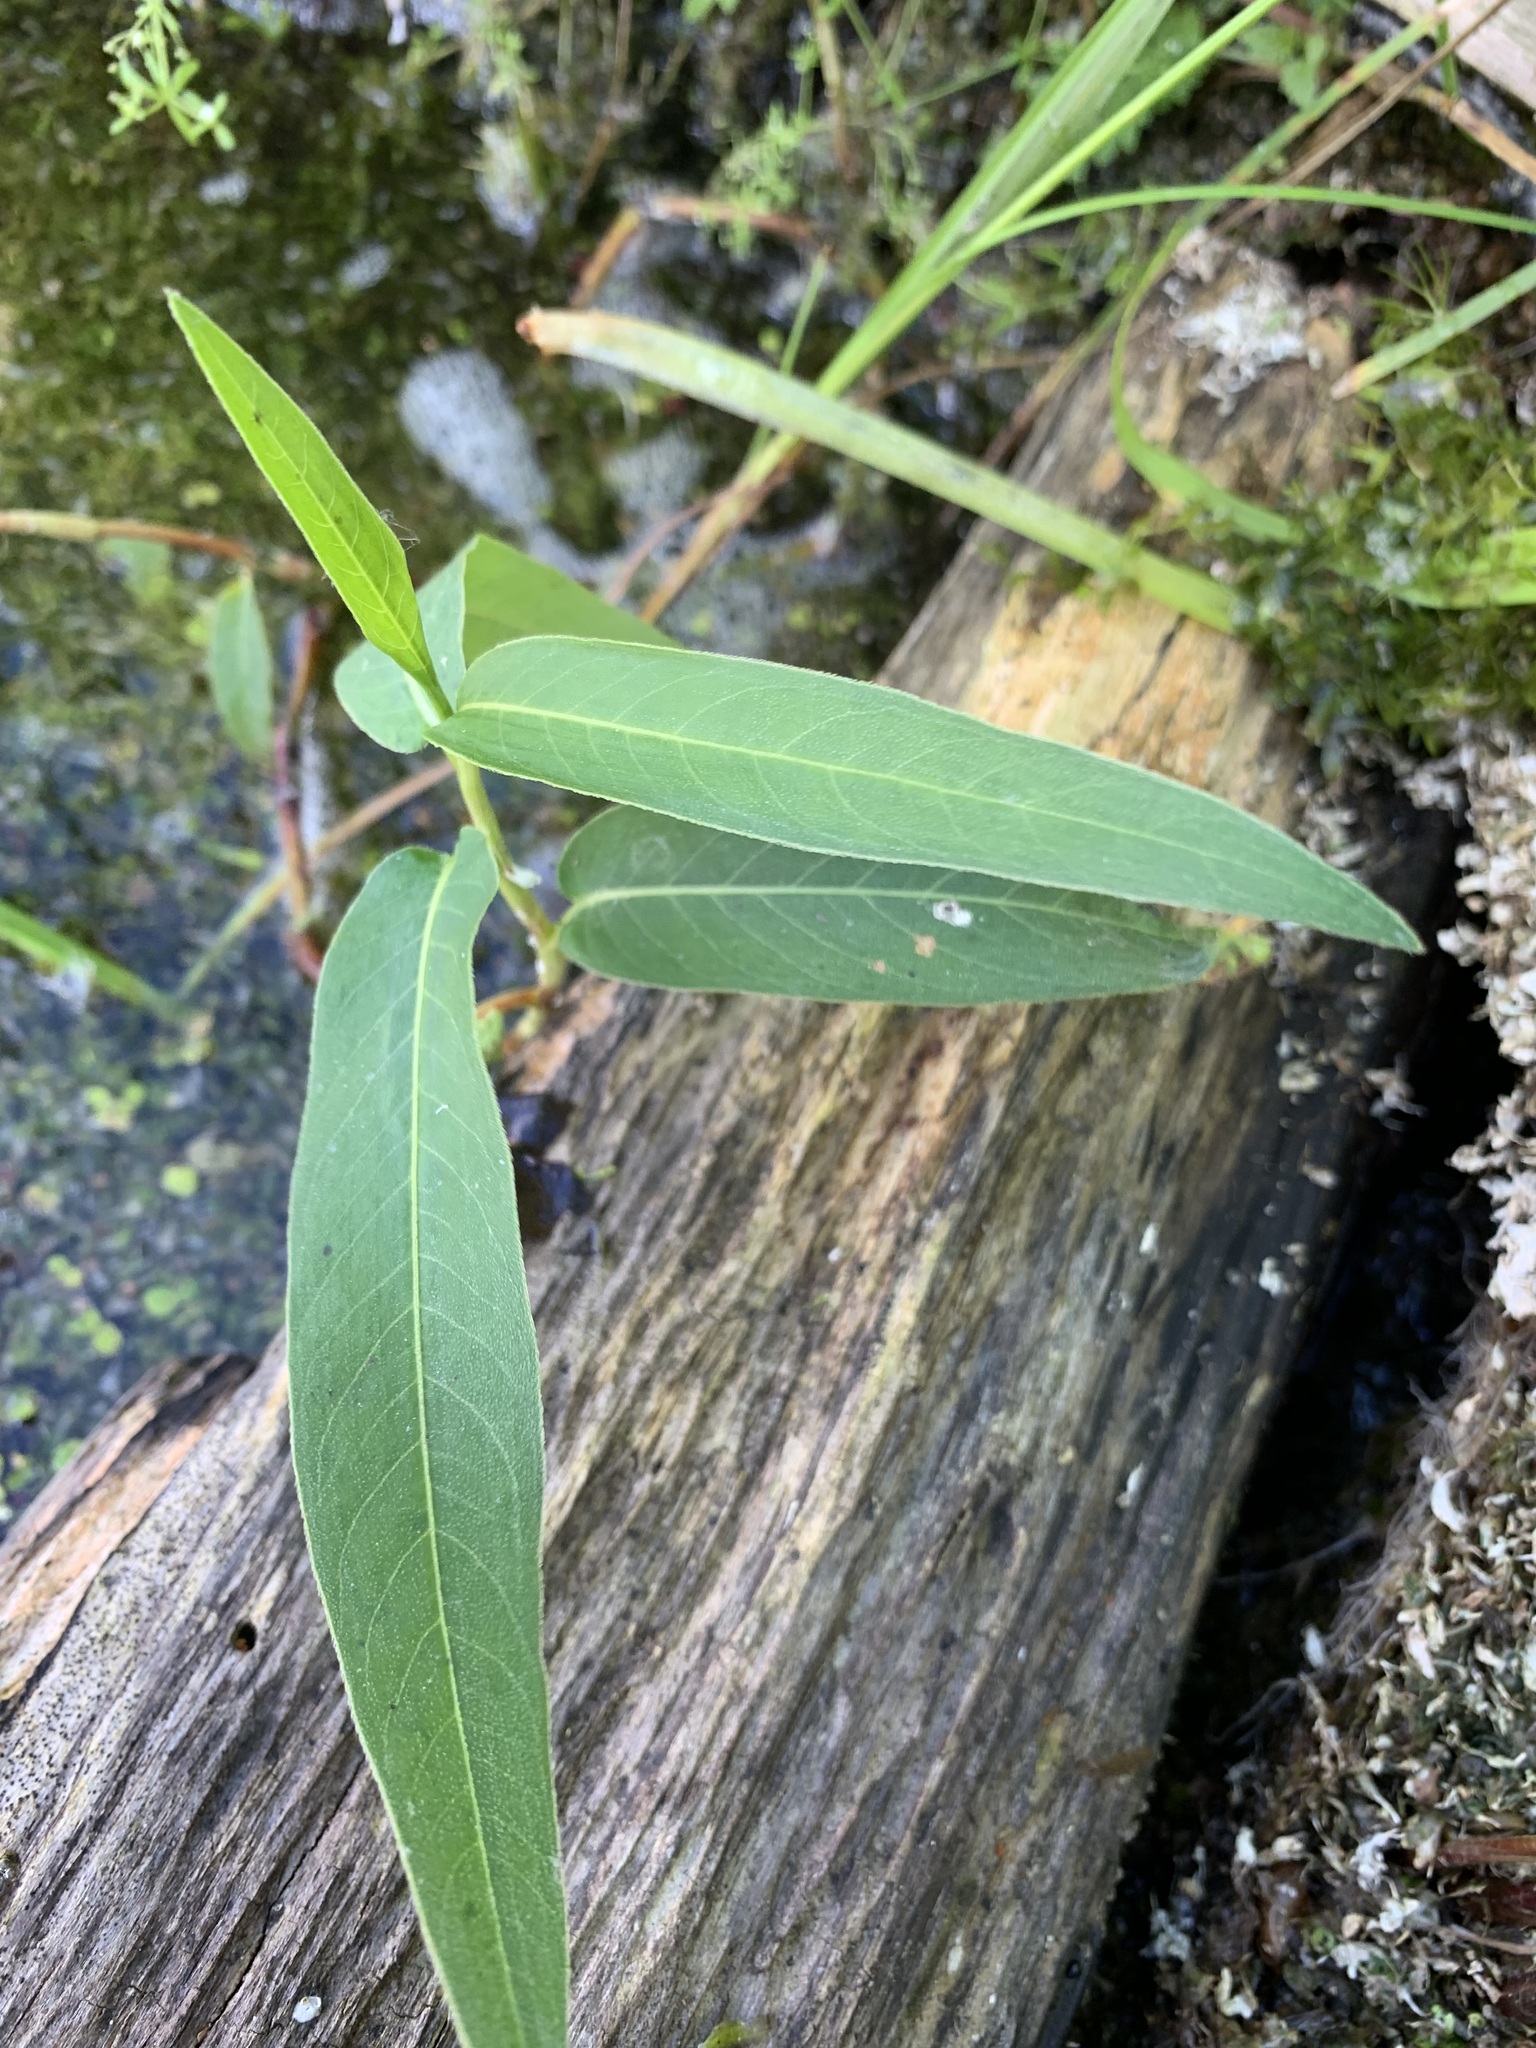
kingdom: Plantae
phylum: Tracheophyta
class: Magnoliopsida
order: Caryophyllales
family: Polygonaceae
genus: Persicaria
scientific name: Persicaria amphibia
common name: Amphibious bistort
